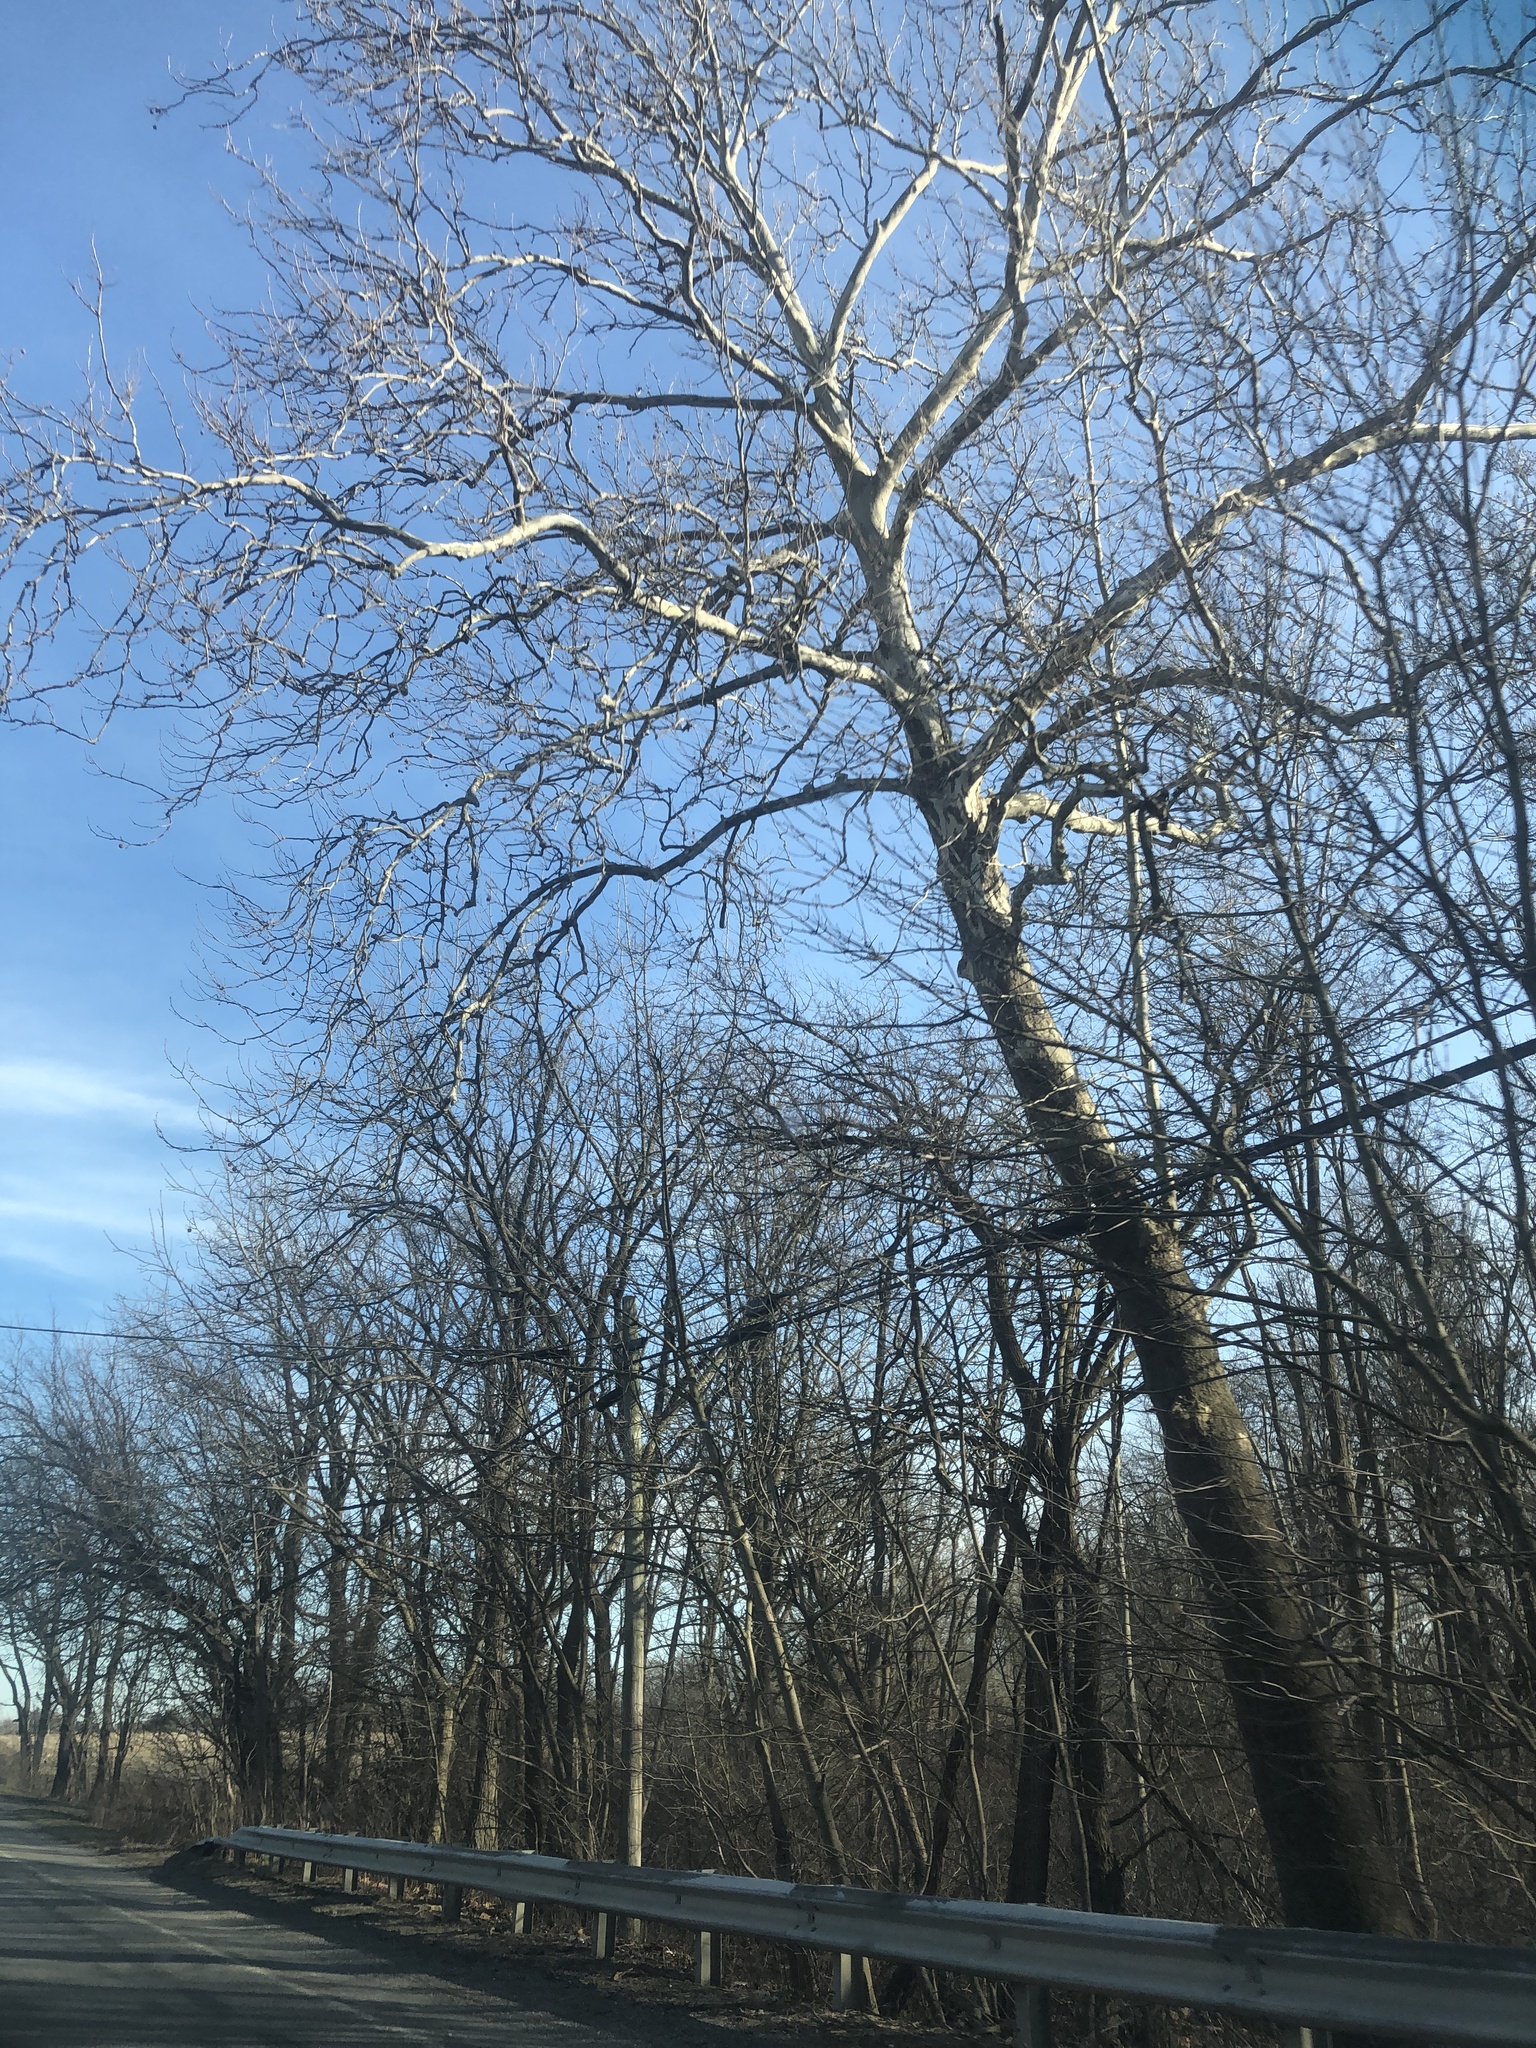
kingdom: Plantae
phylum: Tracheophyta
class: Magnoliopsida
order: Proteales
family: Platanaceae
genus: Platanus
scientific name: Platanus occidentalis
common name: American sycamore
